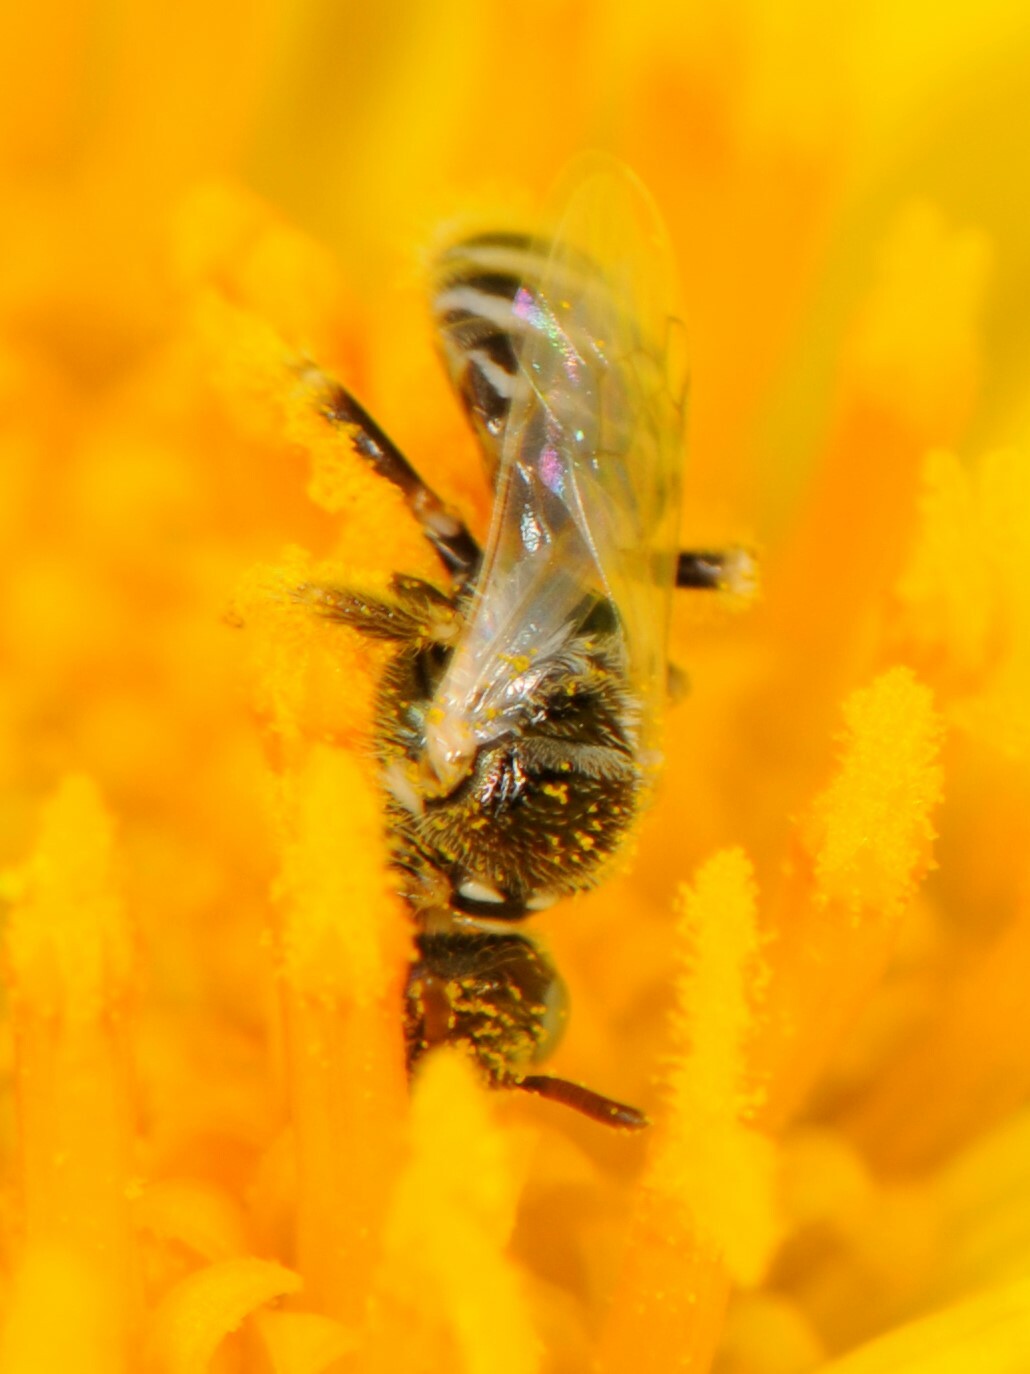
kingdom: Animalia
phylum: Arthropoda
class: Insecta
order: Hymenoptera
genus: Pentaperdita
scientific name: Pentaperdita
